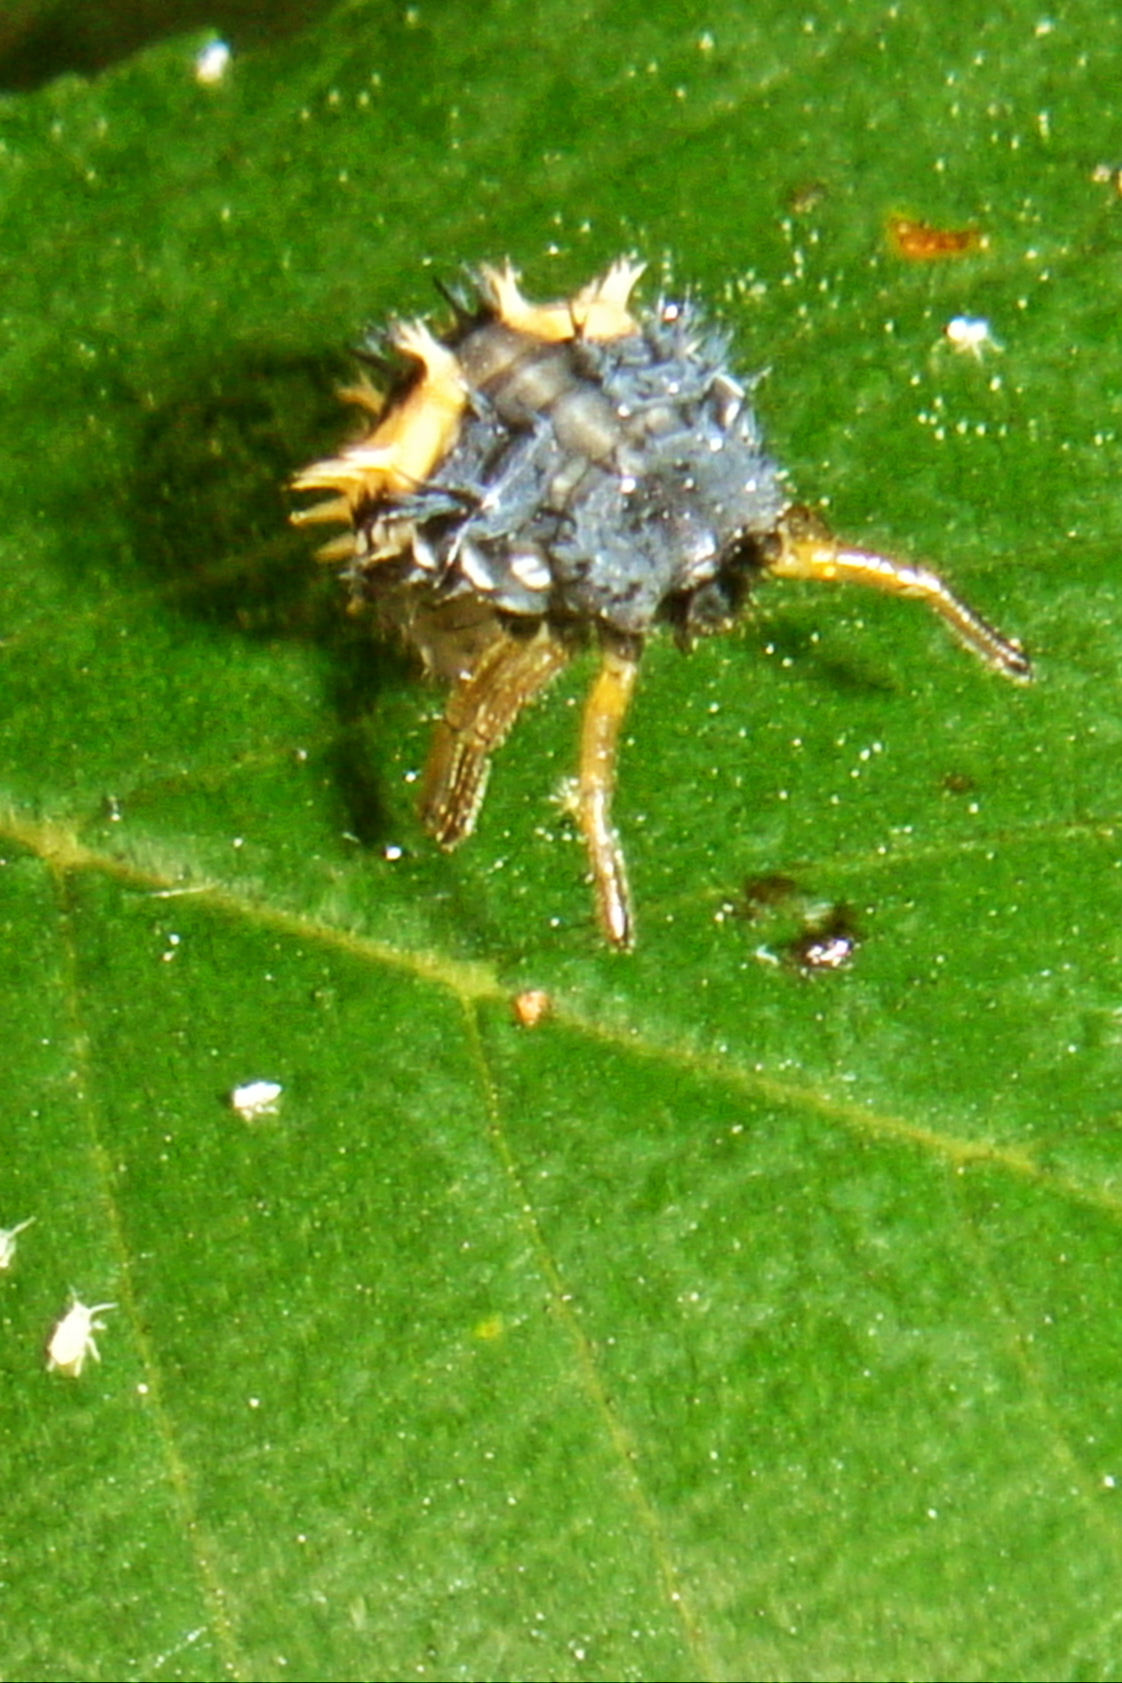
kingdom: Animalia
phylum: Arthropoda
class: Insecta
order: Coleoptera
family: Coccinellidae
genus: Harmonia
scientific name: Harmonia axyridis
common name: Harlequin ladybird
